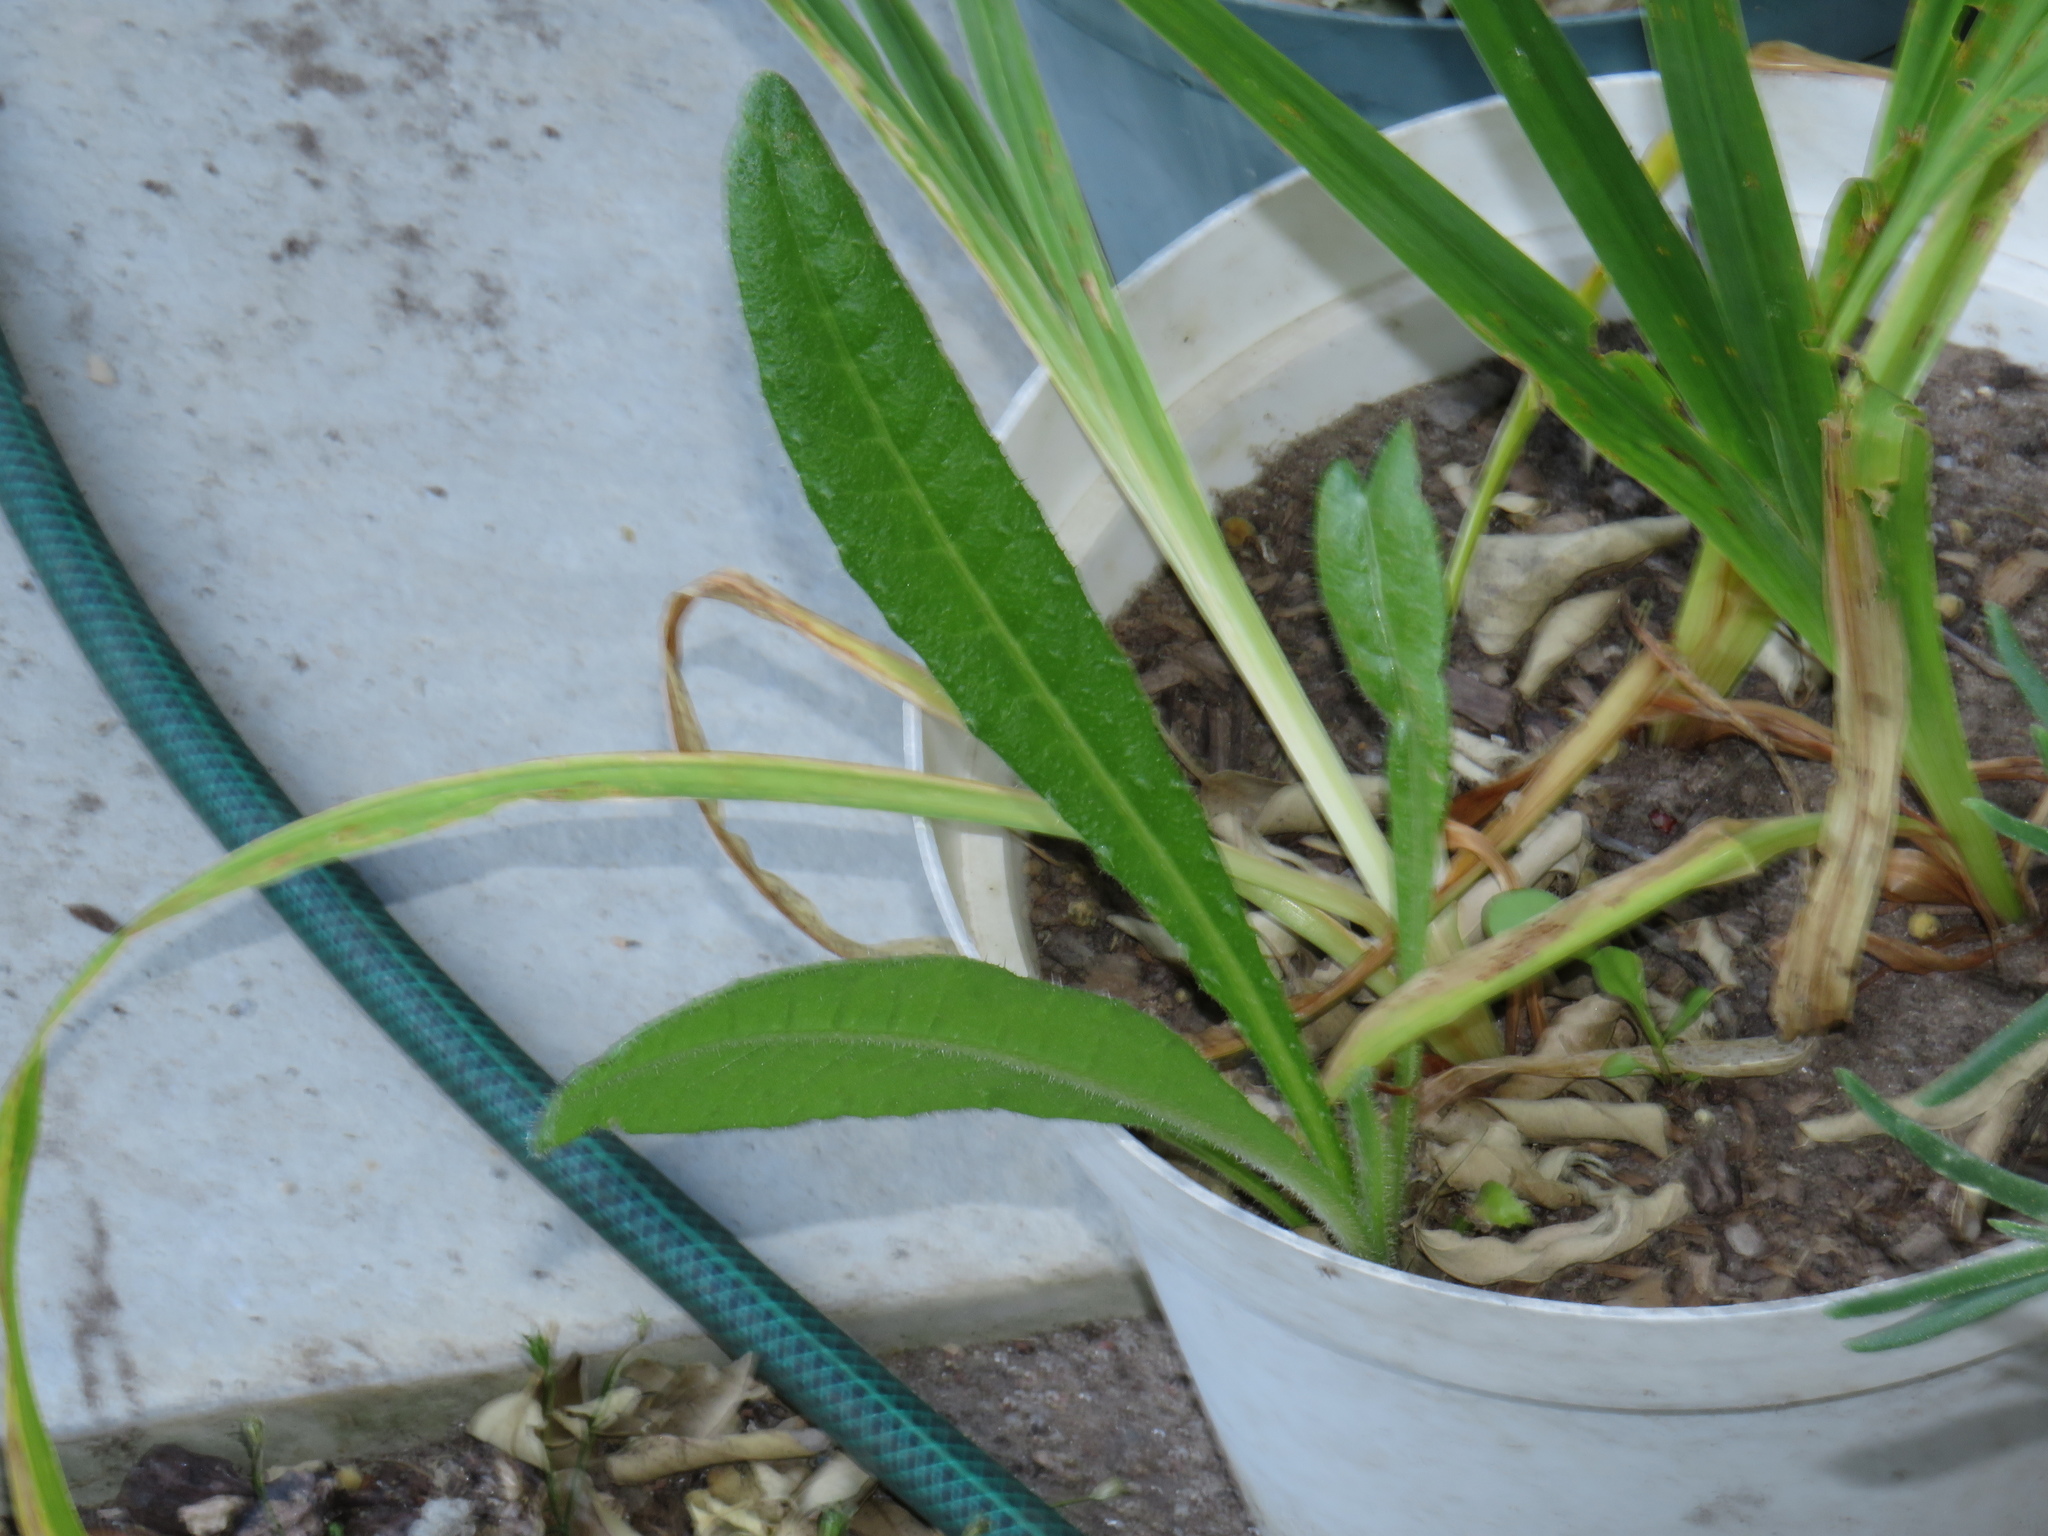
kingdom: Plantae
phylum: Tracheophyta
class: Magnoliopsida
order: Asterales
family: Asteraceae
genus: Helminthotheca
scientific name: Helminthotheca echioides
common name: Ox-tongue
